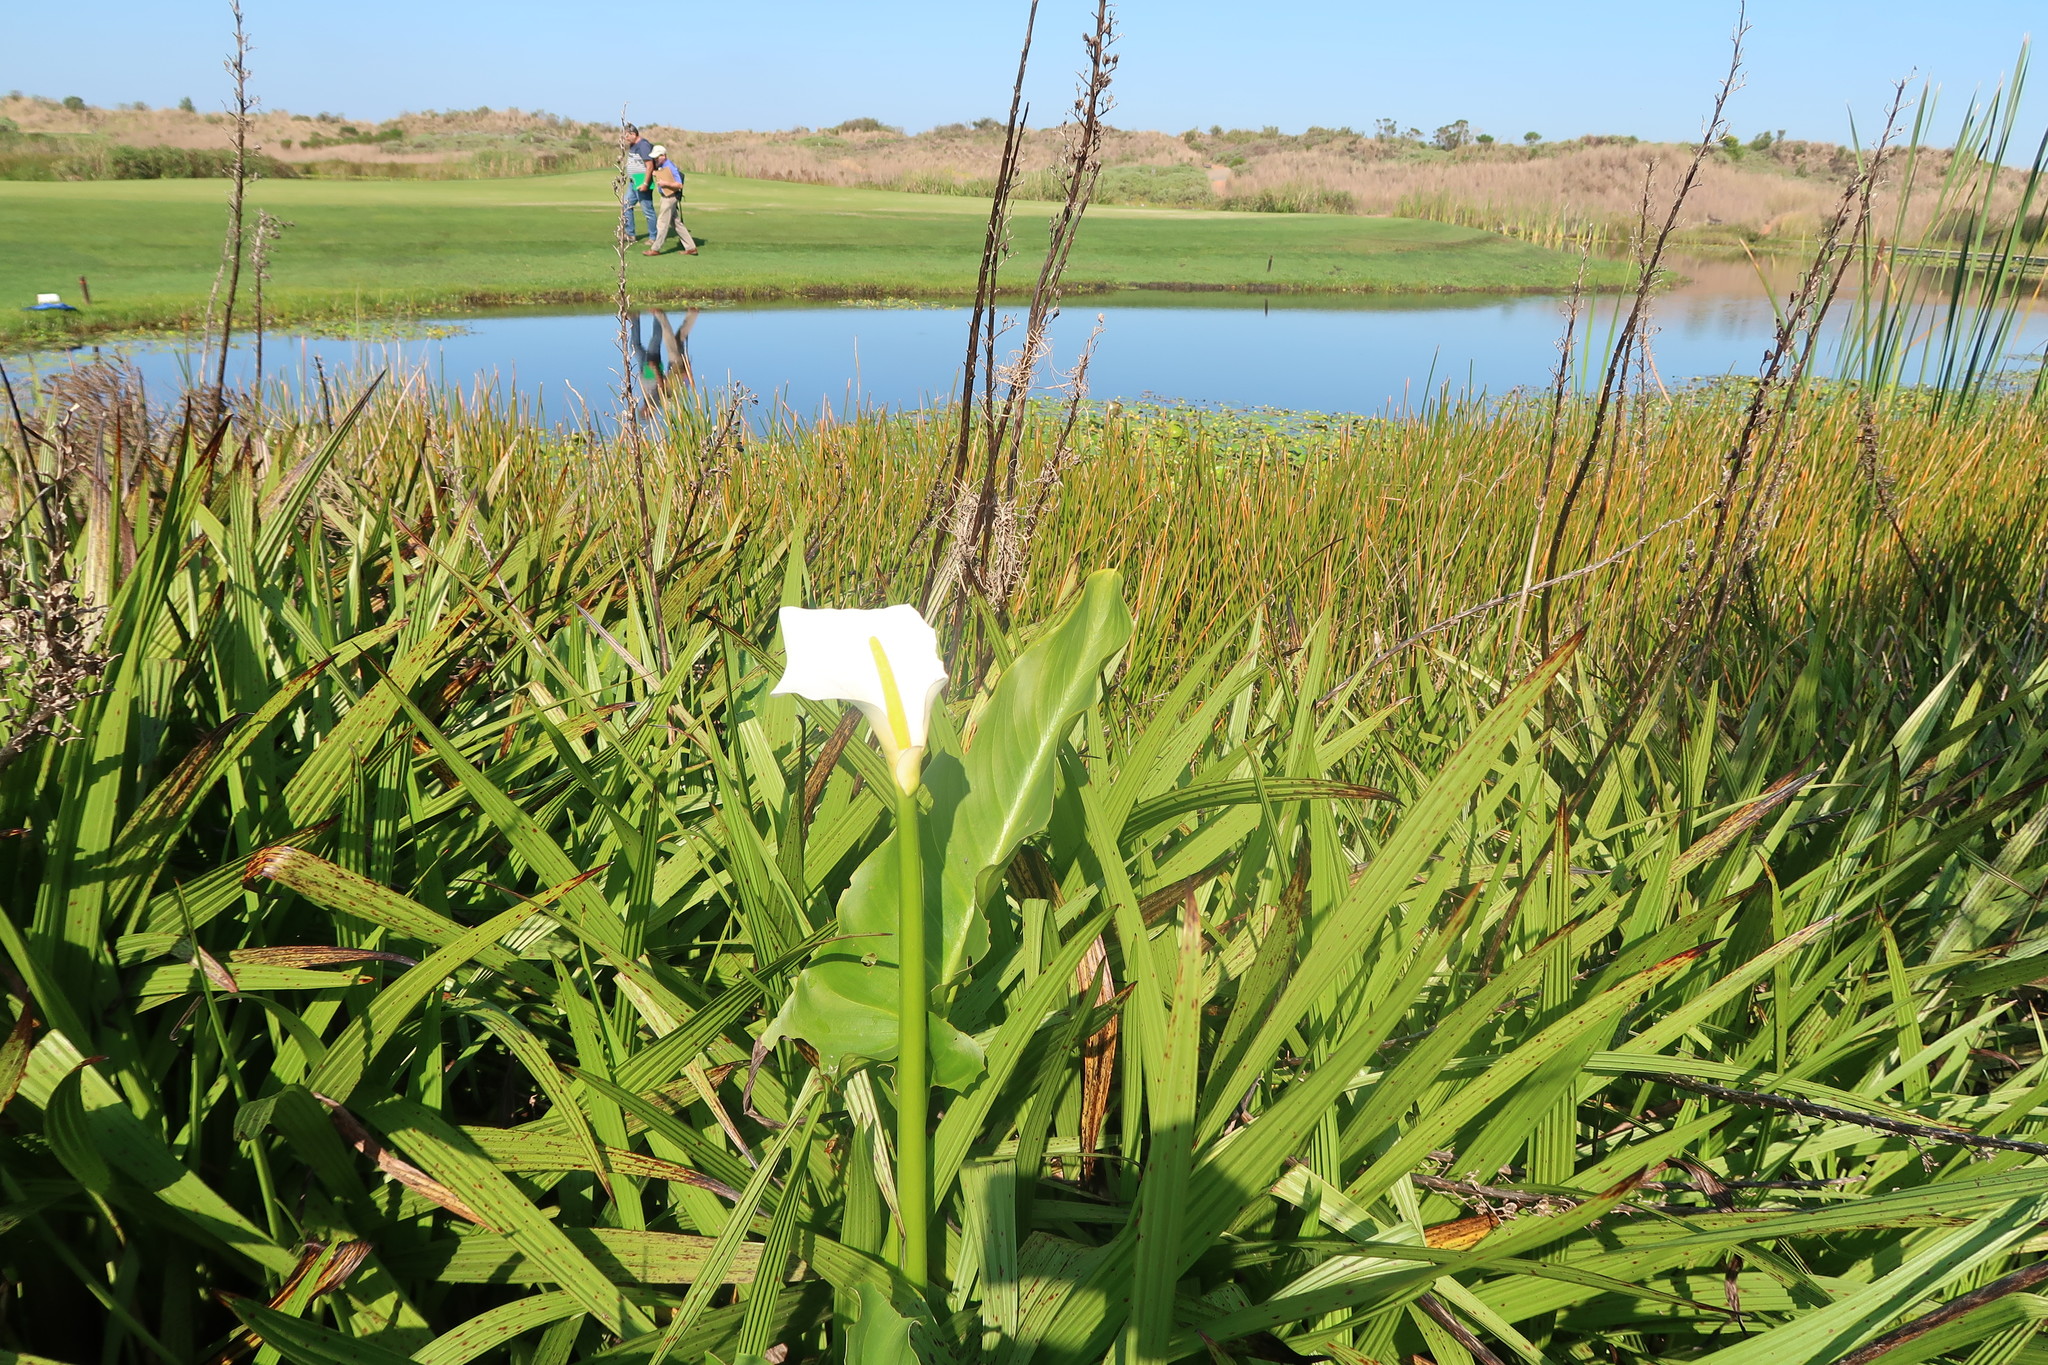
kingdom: Plantae
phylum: Tracheophyta
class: Liliopsida
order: Alismatales
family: Araceae
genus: Zantedeschia
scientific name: Zantedeschia aethiopica
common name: Altar-lily
